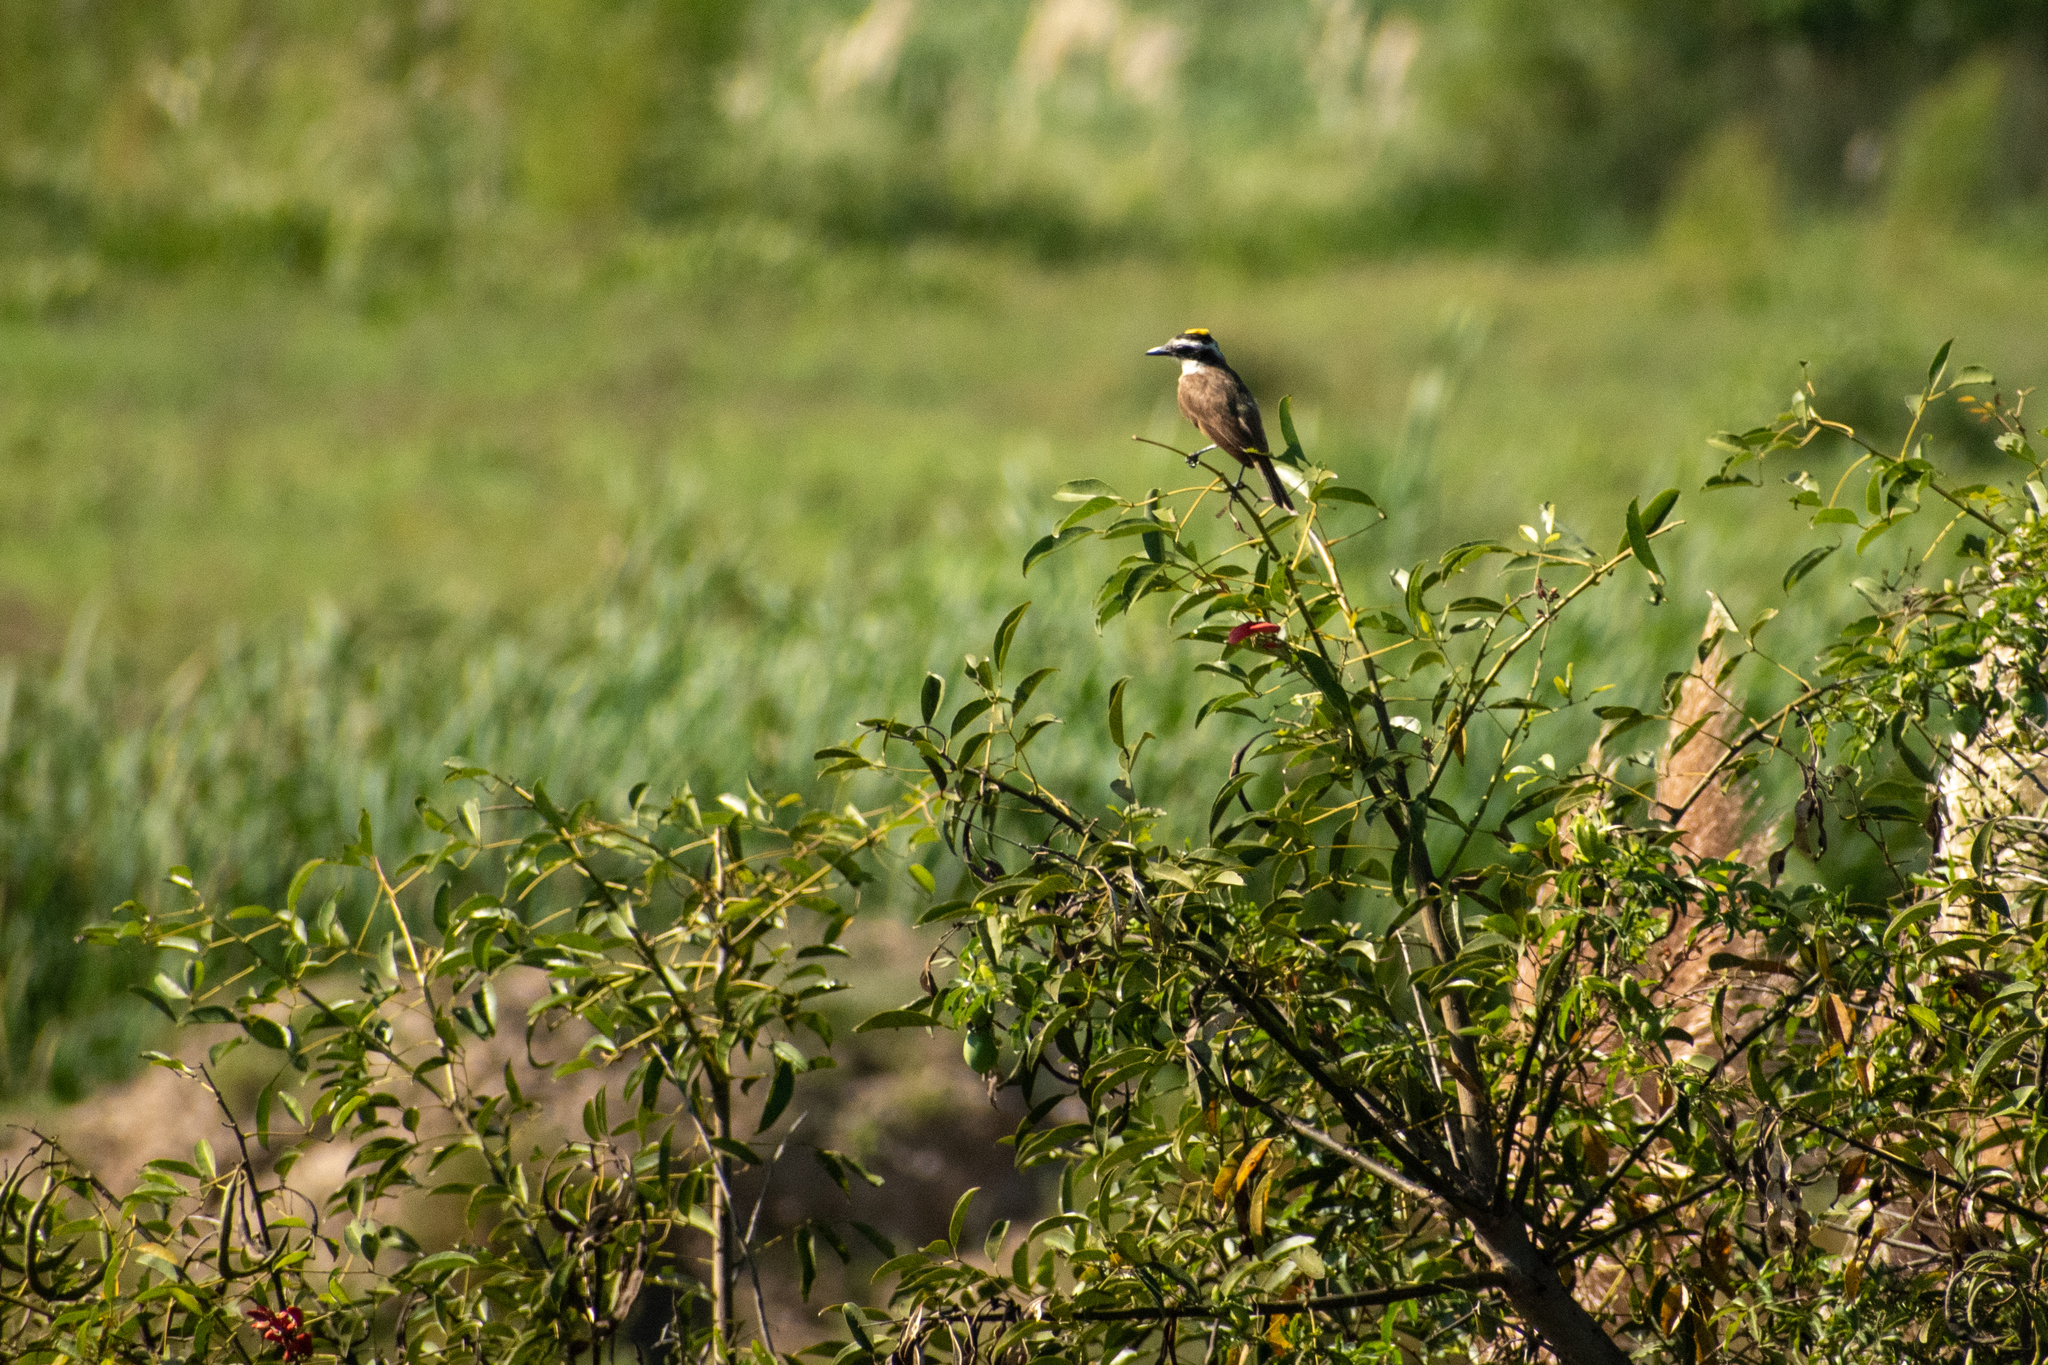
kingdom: Animalia
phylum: Chordata
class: Aves
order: Passeriformes
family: Tyrannidae
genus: Pitangus
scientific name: Pitangus sulphuratus
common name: Great kiskadee
